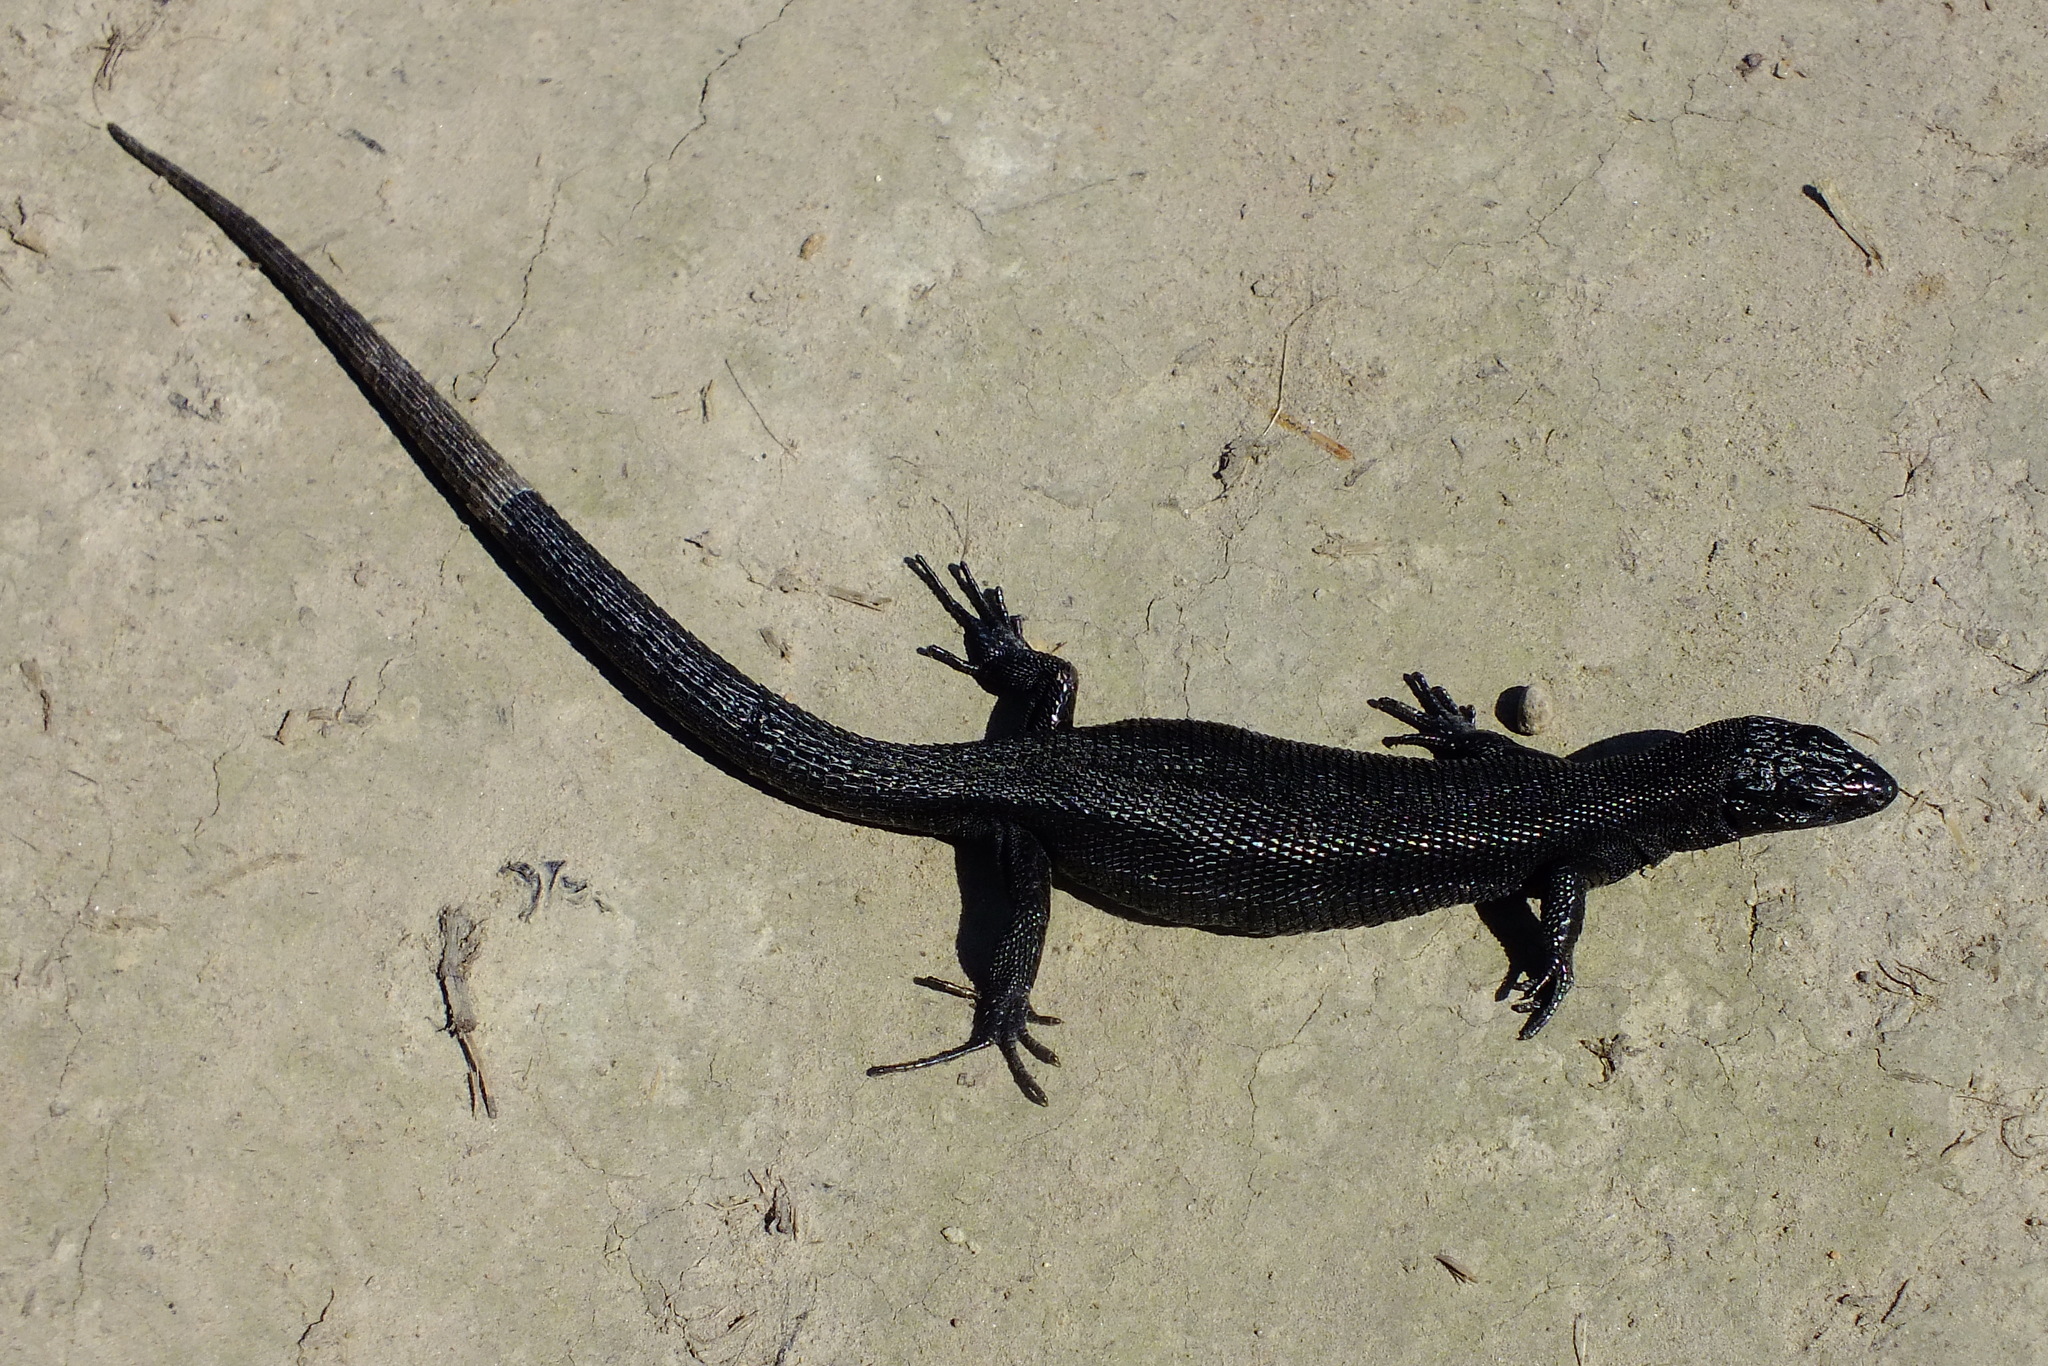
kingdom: Animalia
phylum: Chordata
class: Squamata
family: Lacertidae
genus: Zootoca
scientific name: Zootoca vivipara
